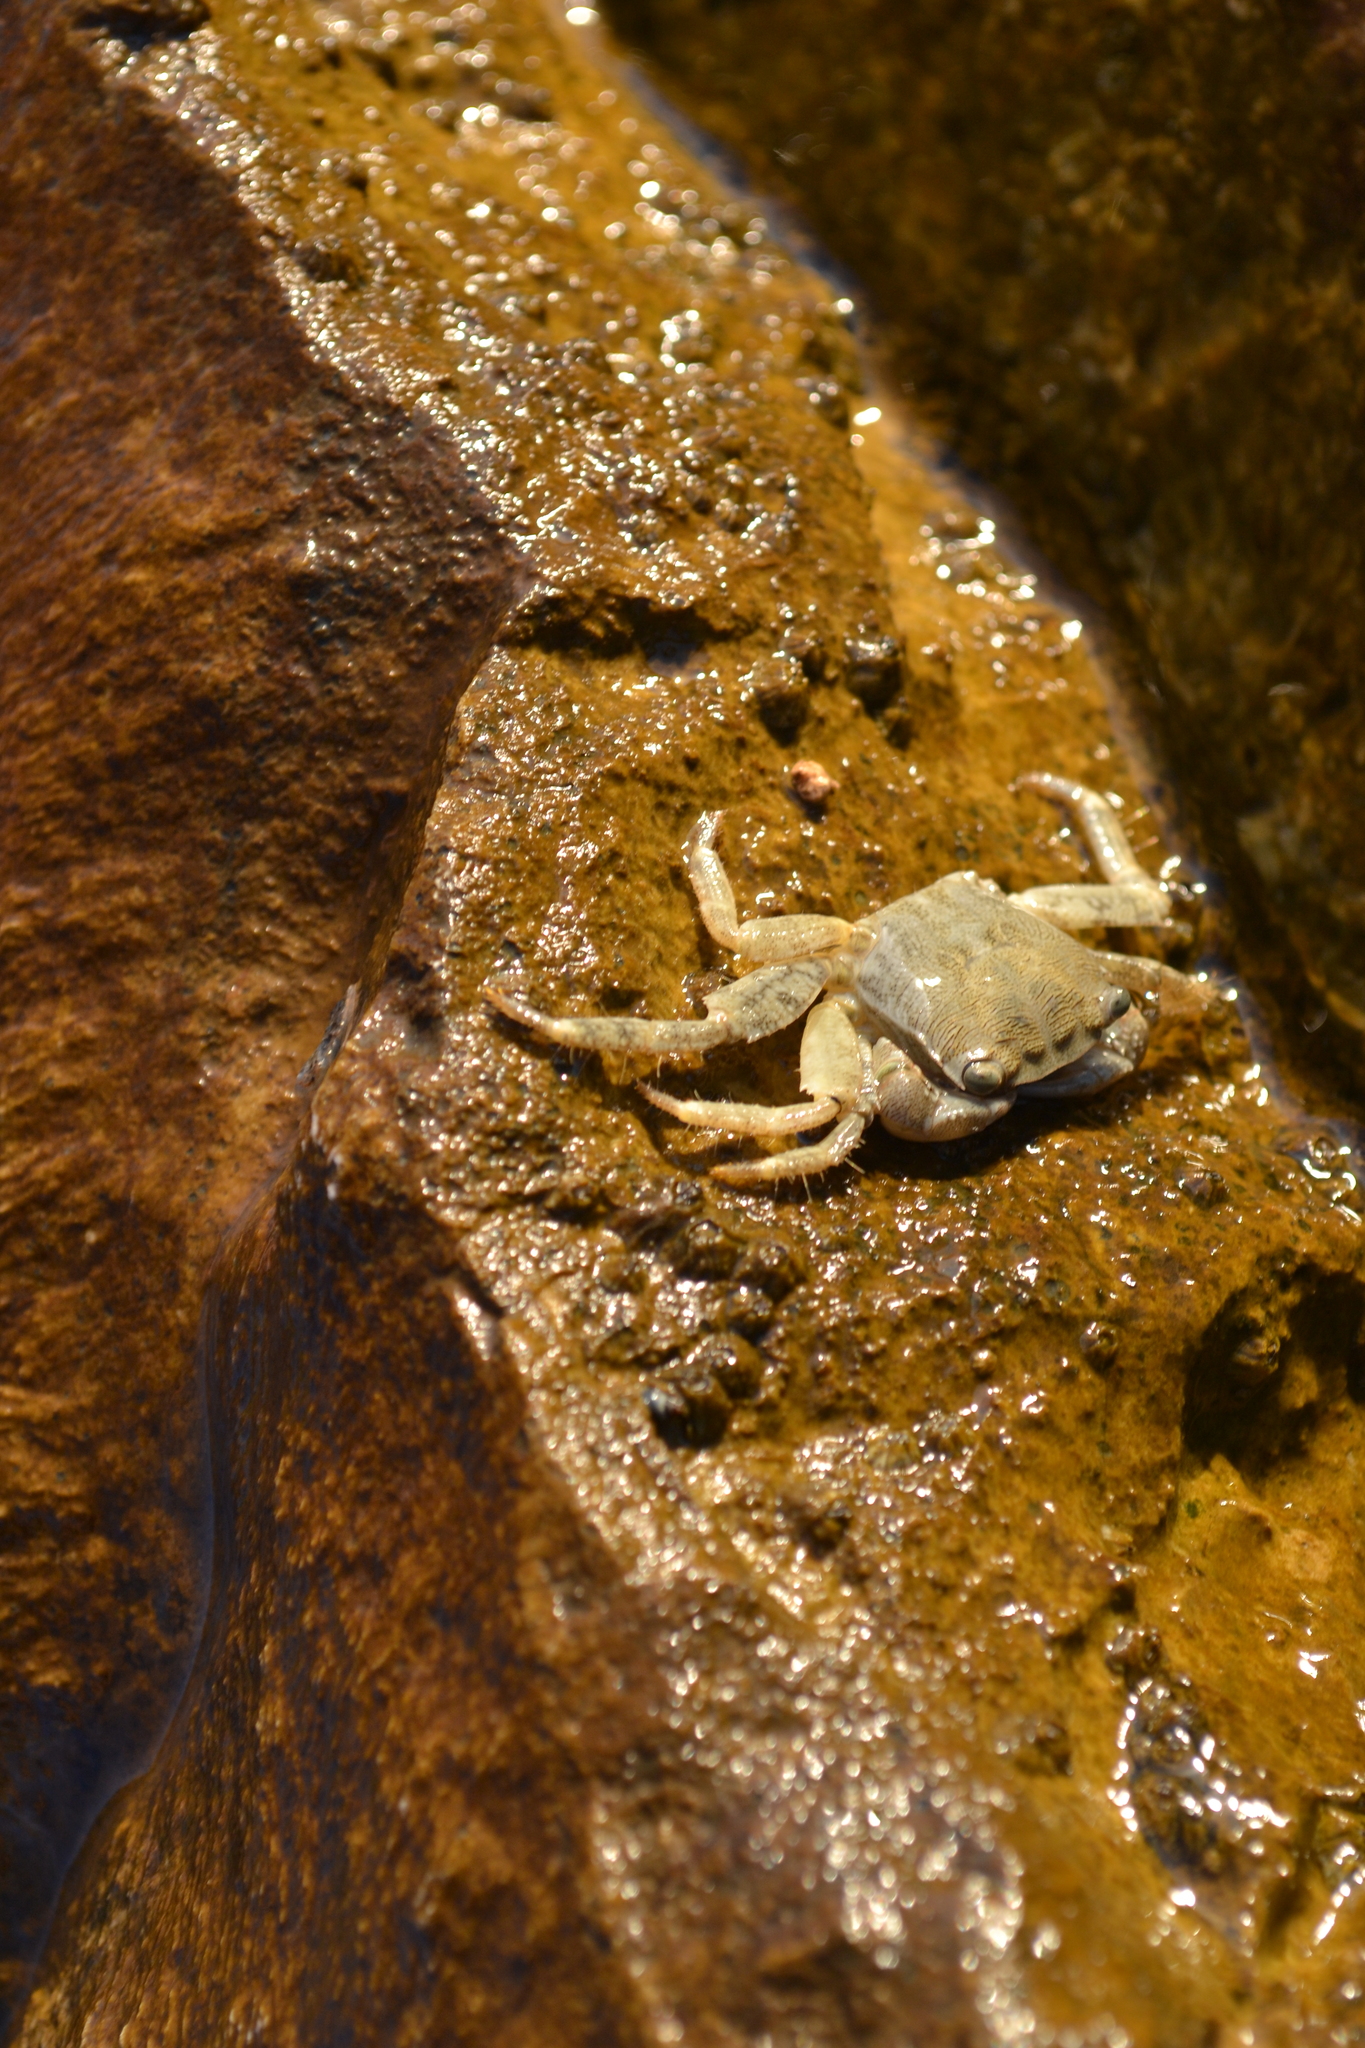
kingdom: Animalia
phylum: Arthropoda
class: Malacostraca
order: Decapoda
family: Grapsidae
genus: Pachygrapsus
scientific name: Pachygrapsus marmoratus
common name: Marbled rock crab
